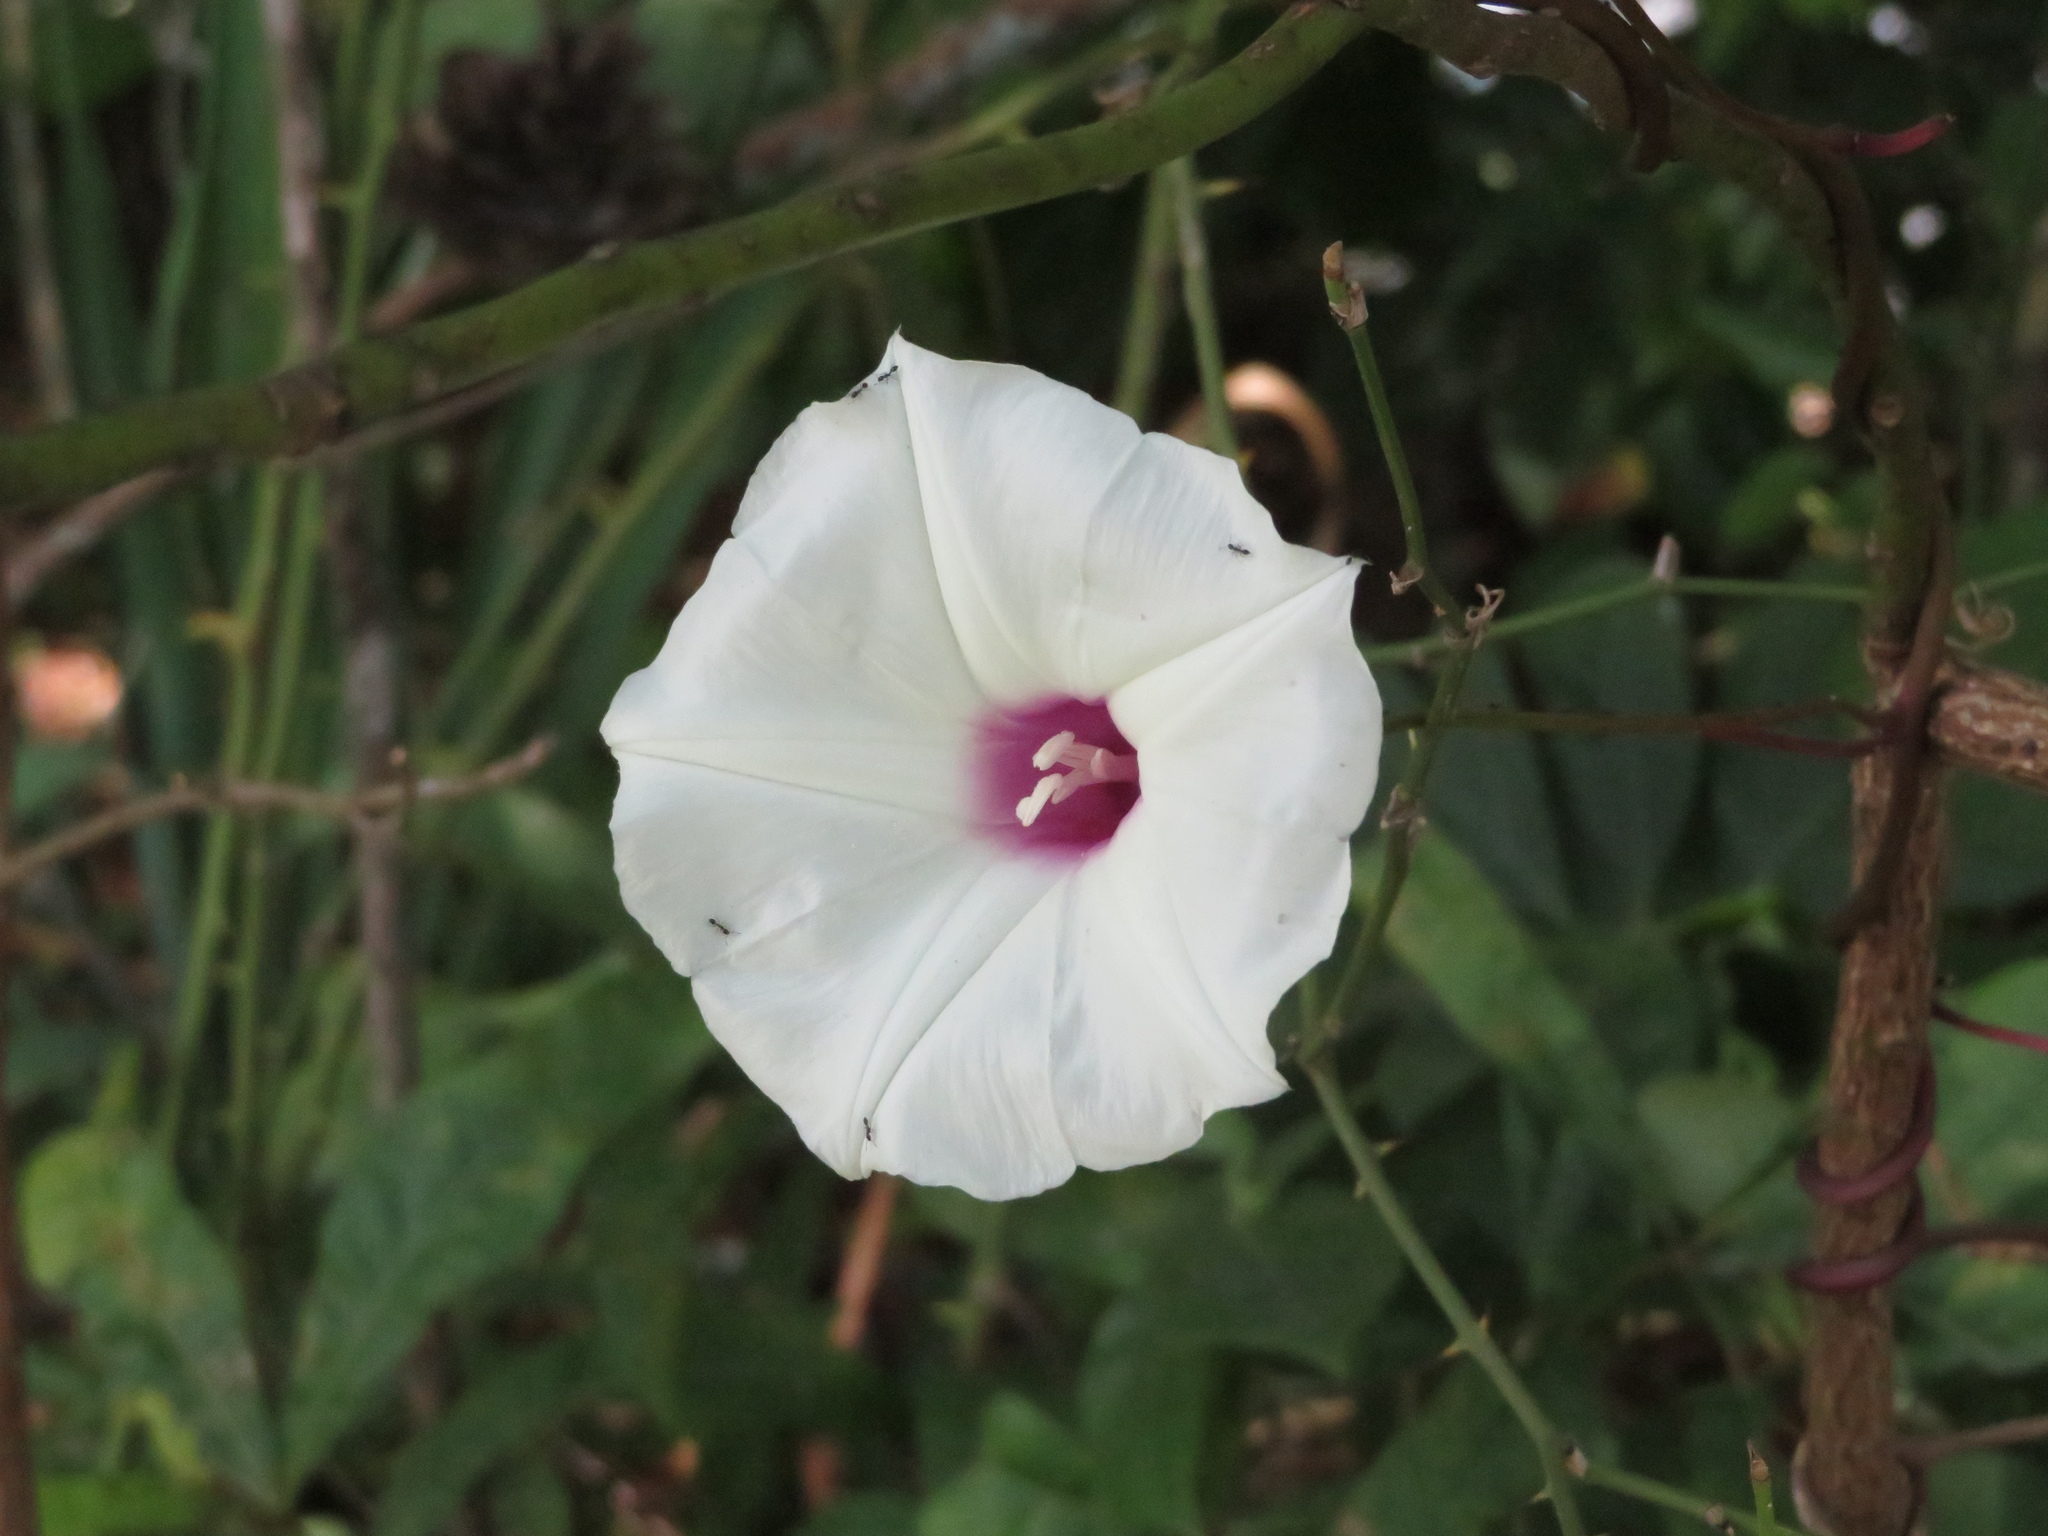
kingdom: Plantae
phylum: Tracheophyta
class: Magnoliopsida
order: Solanales
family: Convolvulaceae
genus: Ipomoea
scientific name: Ipomoea pandurata
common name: Man-of-the-earth
